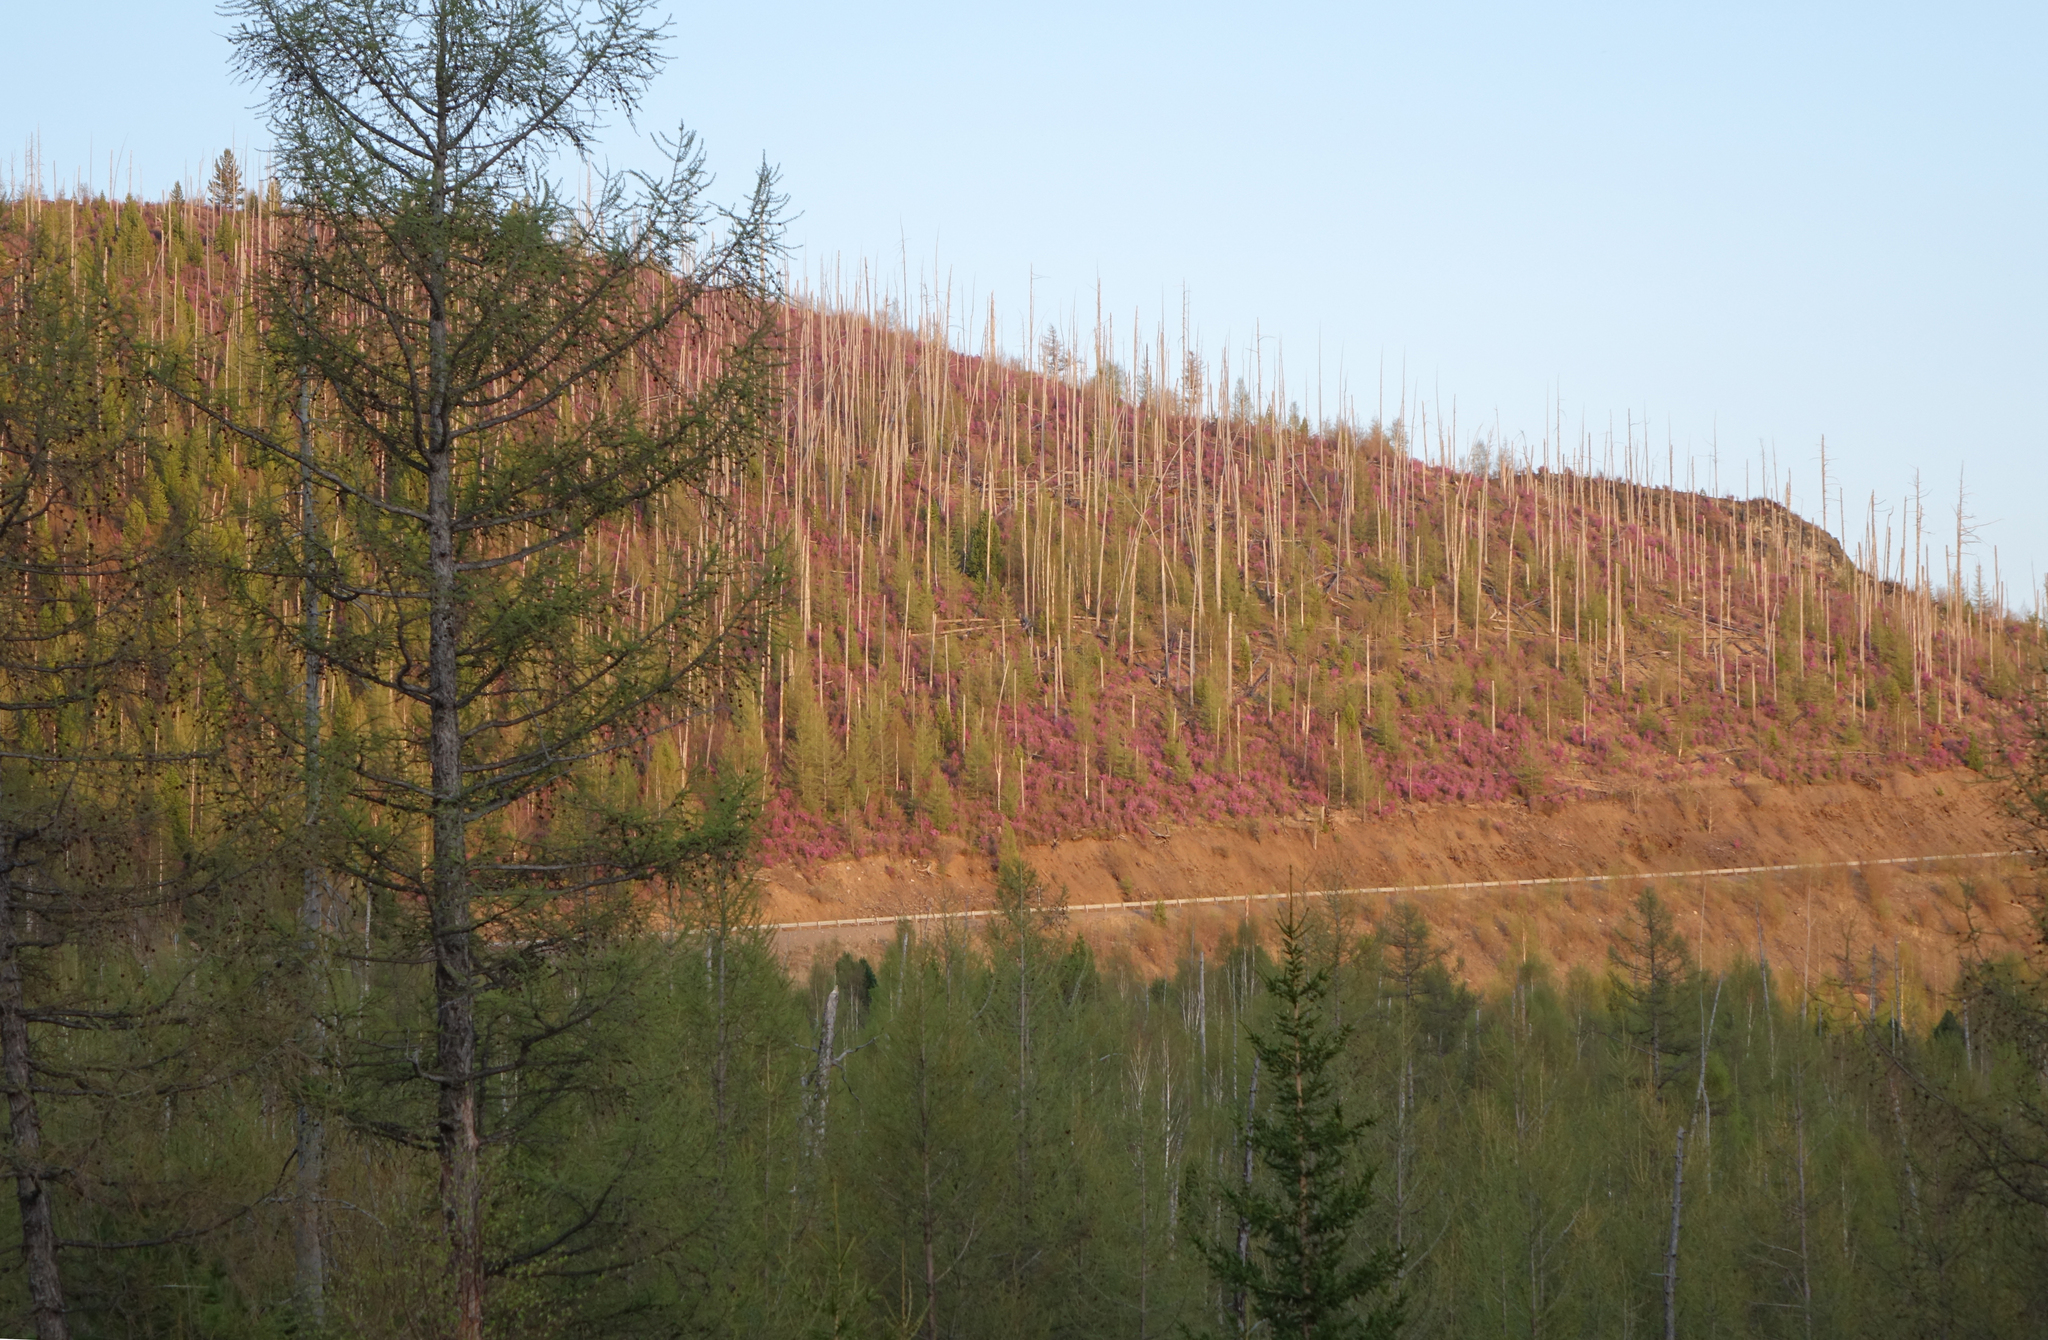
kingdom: Plantae
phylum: Tracheophyta
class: Magnoliopsida
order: Ericales
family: Ericaceae
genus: Rhododendron
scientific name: Rhododendron dauricum
